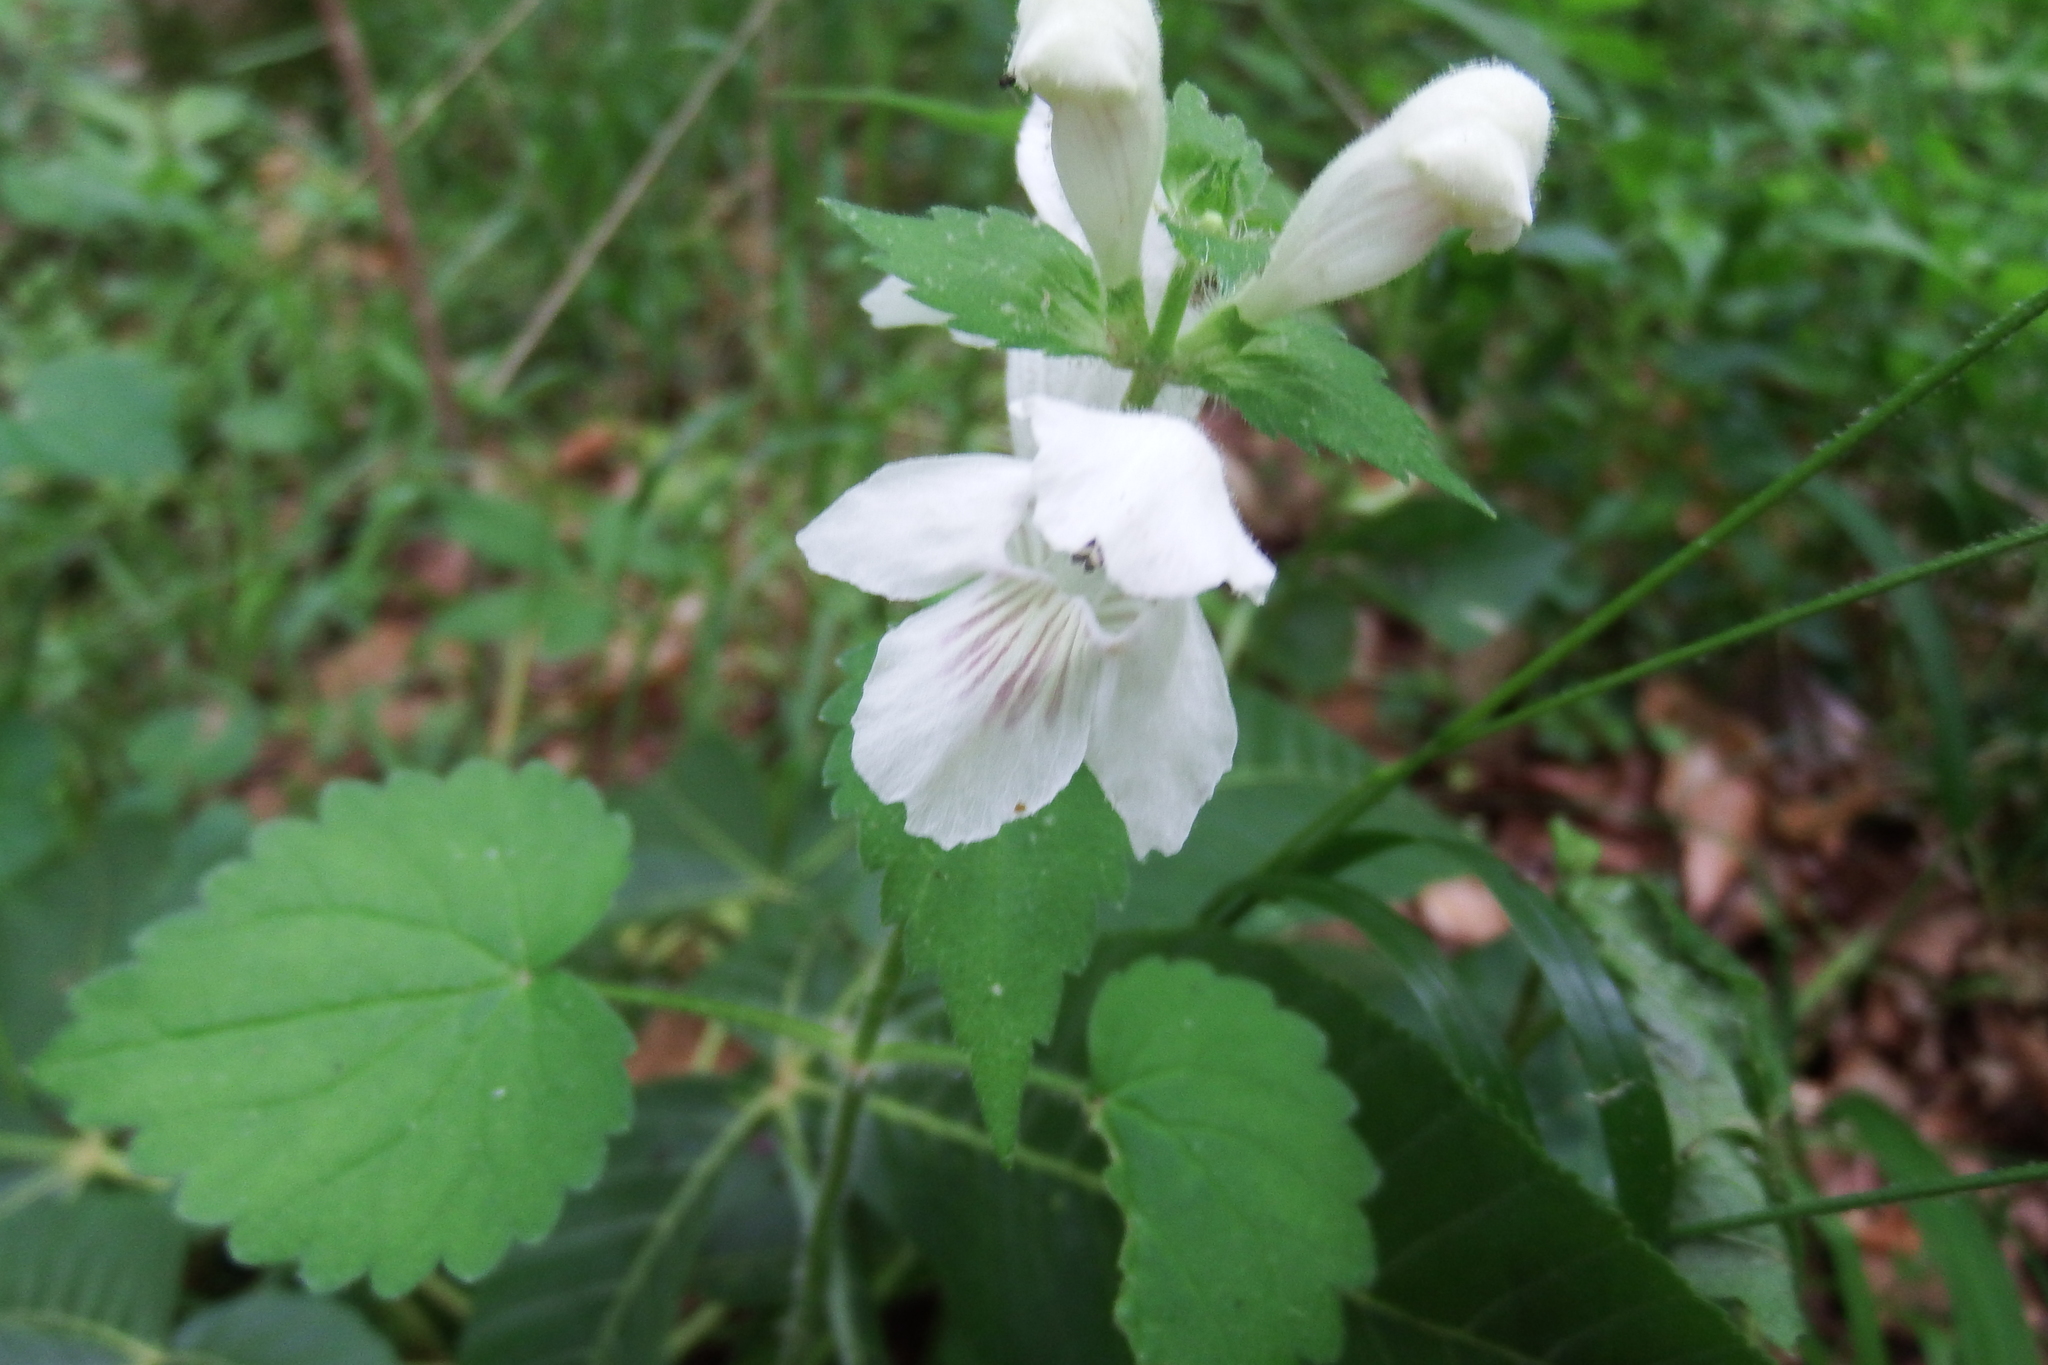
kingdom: Plantae
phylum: Tracheophyta
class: Magnoliopsida
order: Lamiales
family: Lamiaceae
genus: Synandra
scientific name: Synandra hispidula
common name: Synandra
